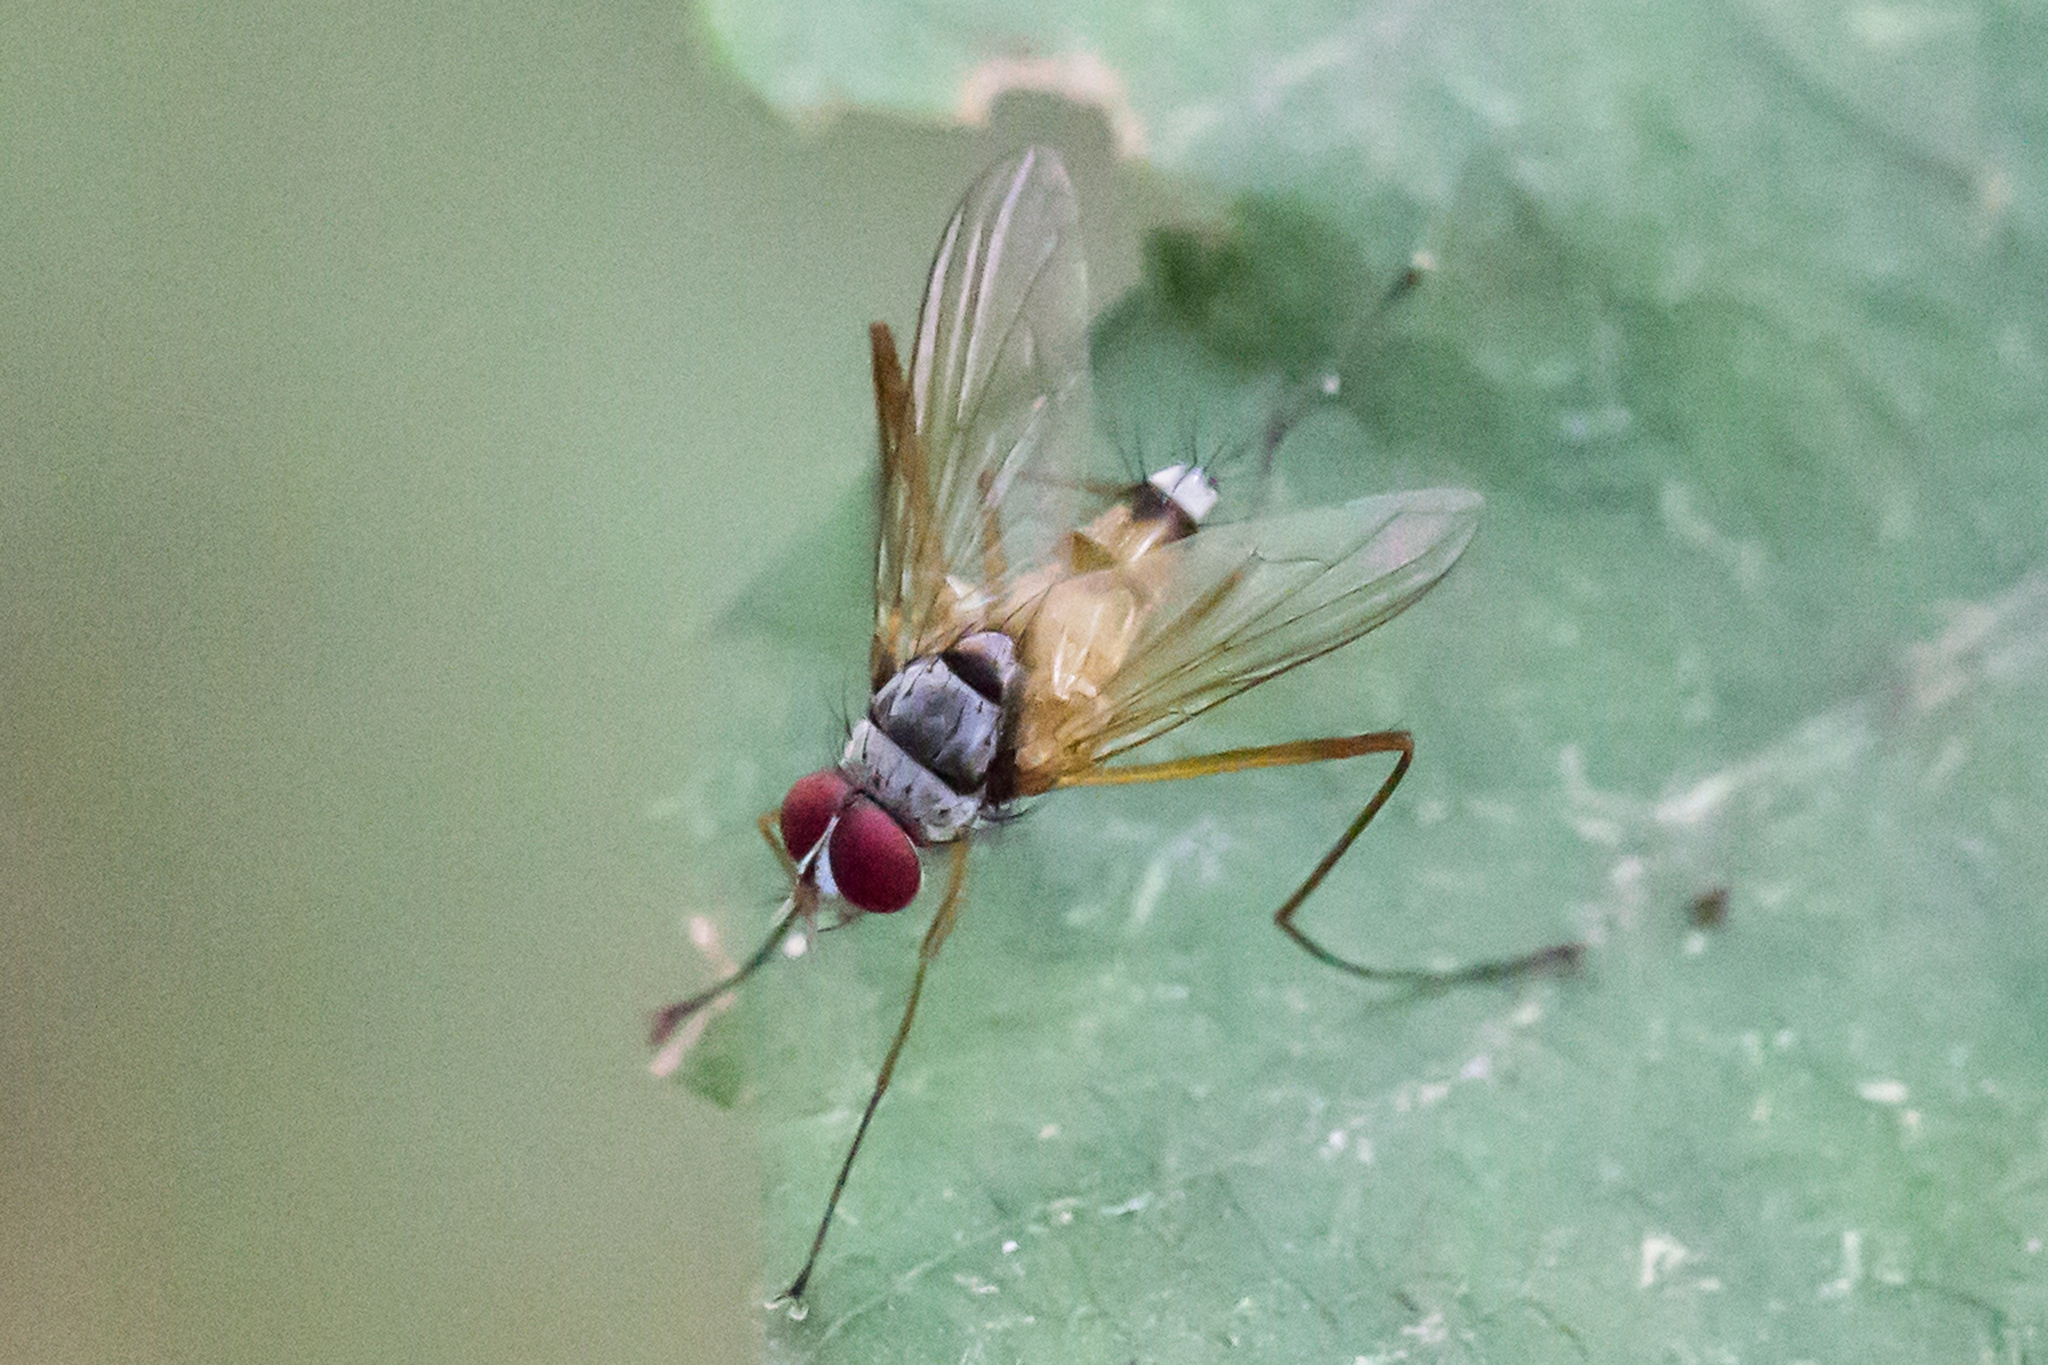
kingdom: Animalia
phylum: Arthropoda
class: Insecta
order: Diptera
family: Tachinidae
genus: Cholomyia
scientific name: Cholomyia inaequipes
